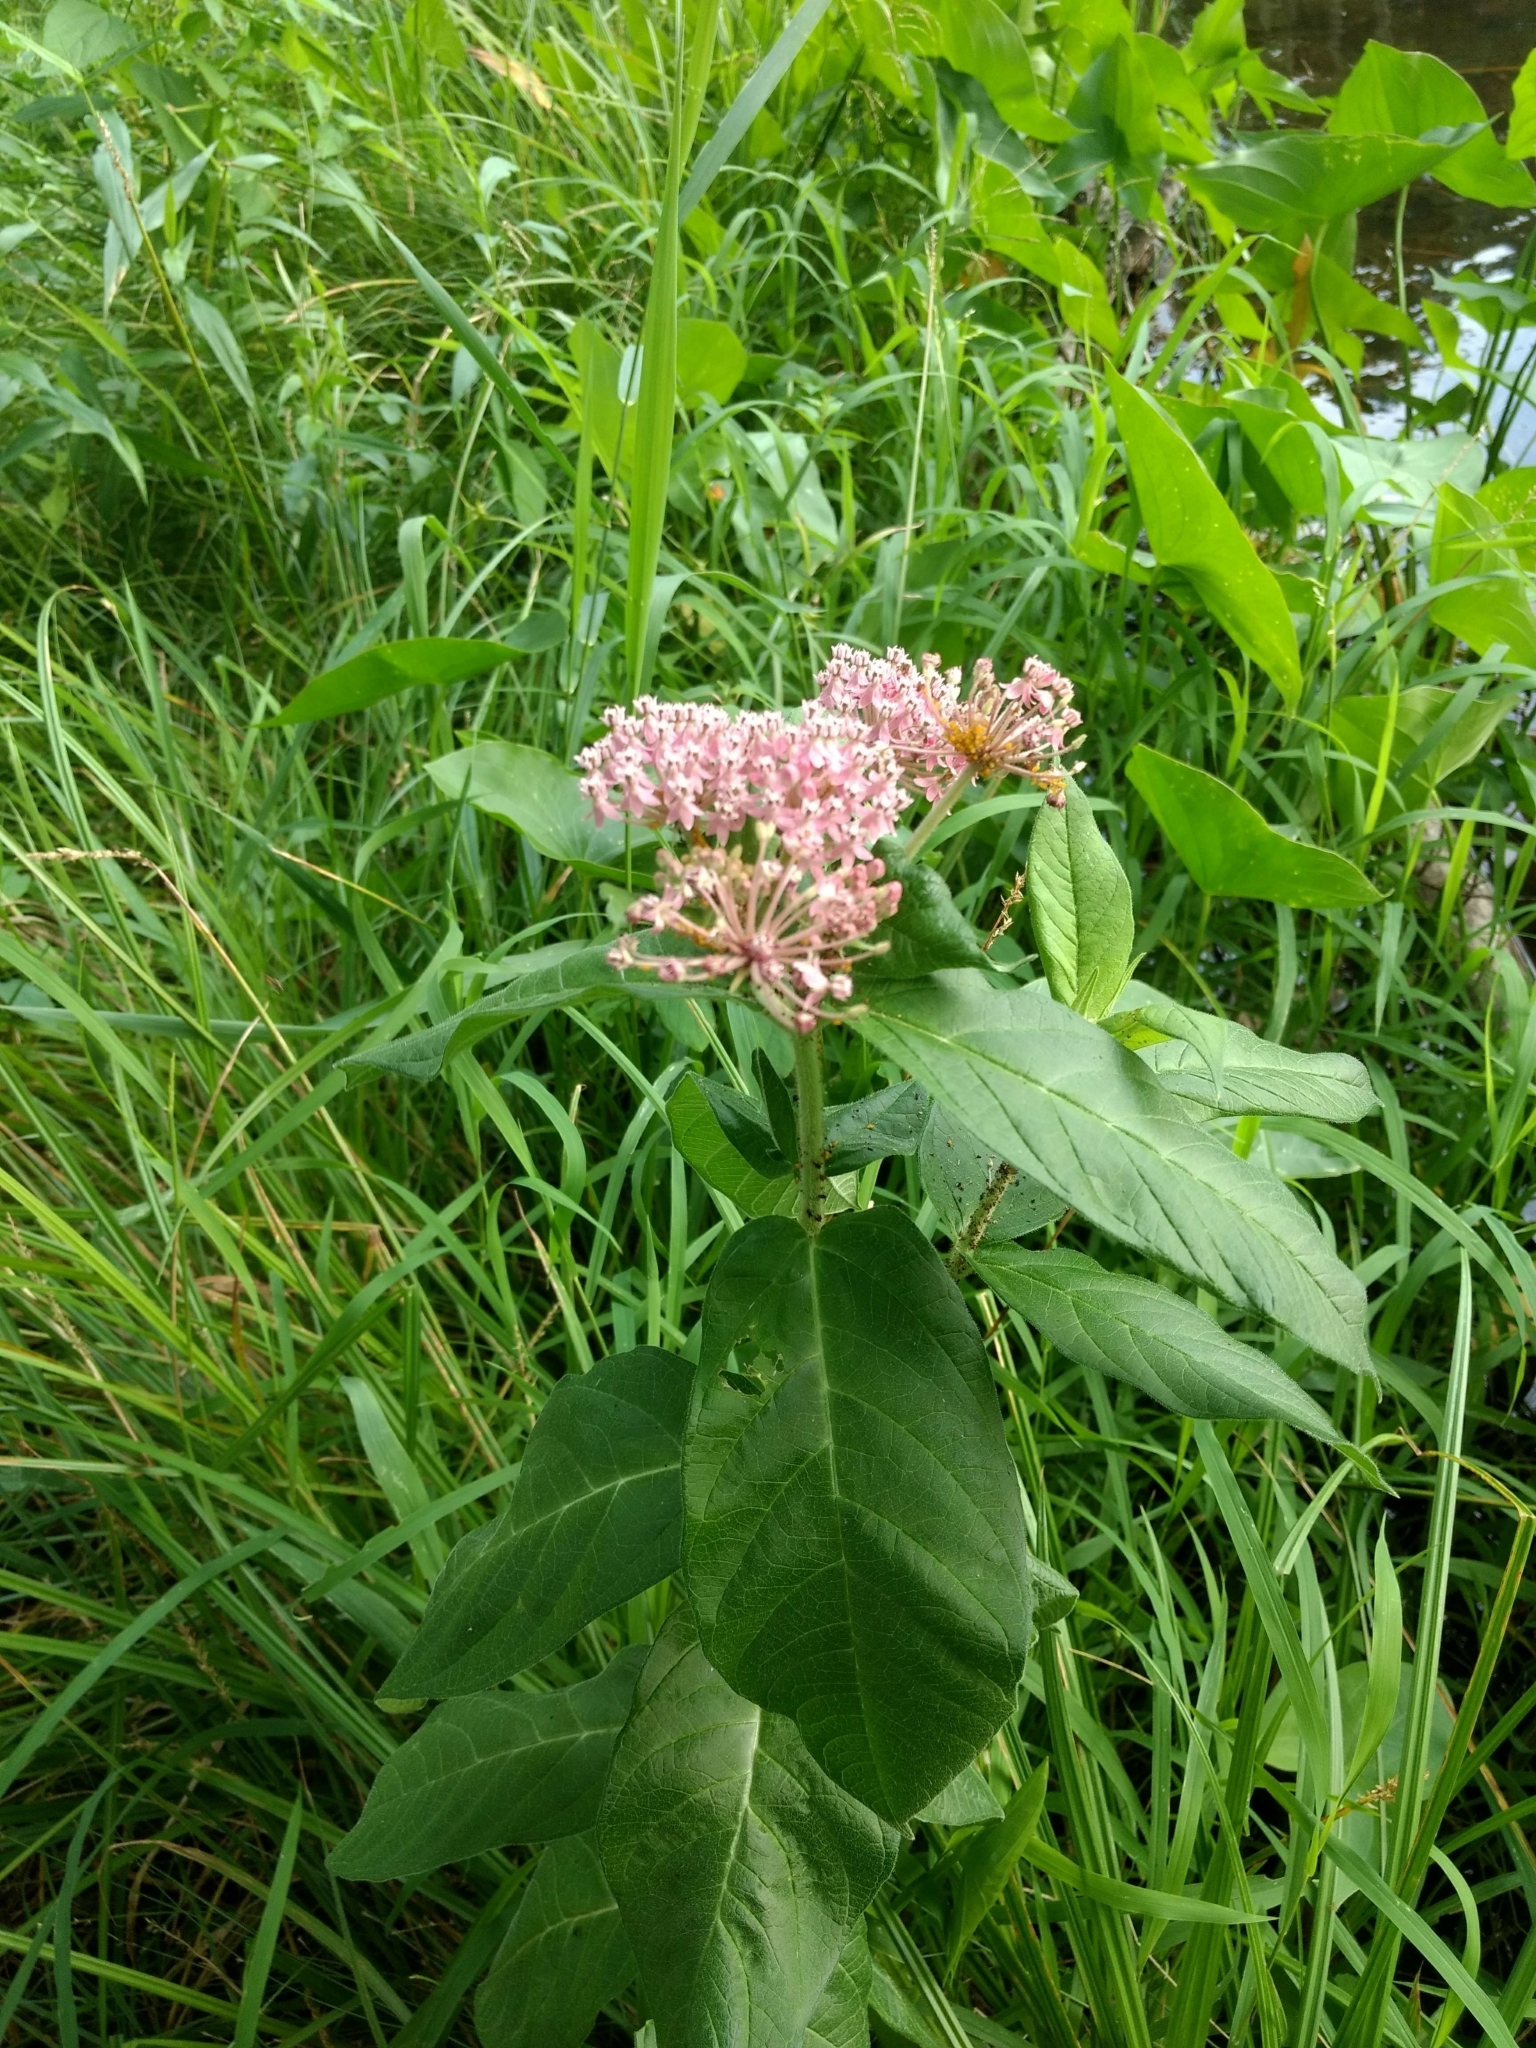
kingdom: Plantae
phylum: Tracheophyta
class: Magnoliopsida
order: Gentianales
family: Apocynaceae
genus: Asclepias
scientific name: Asclepias incarnata
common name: Swamp milkweed
